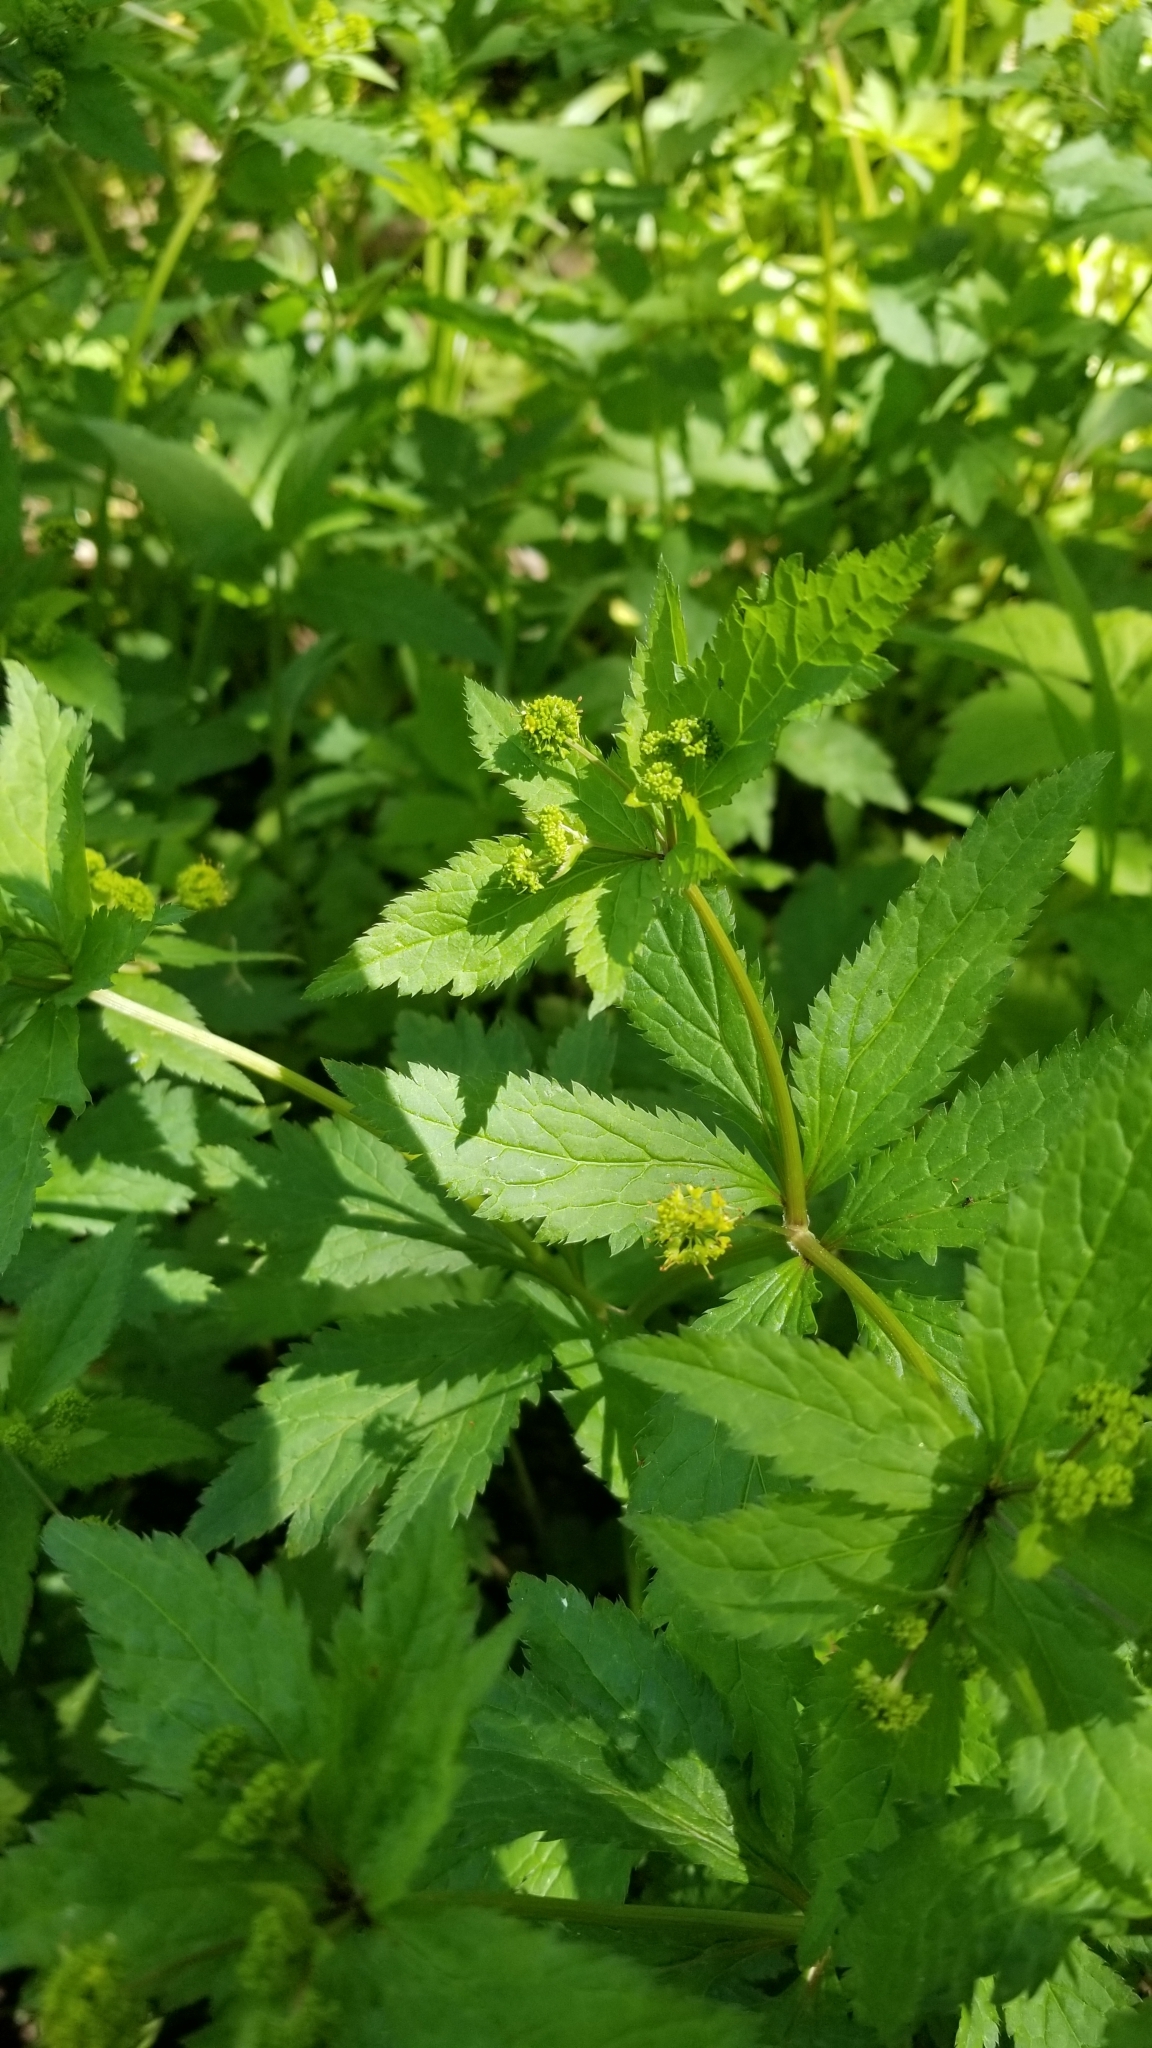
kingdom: Plantae
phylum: Tracheophyta
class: Magnoliopsida
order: Apiales
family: Apiaceae
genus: Sanicula
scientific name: Sanicula odorata
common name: Cluster sanicle
